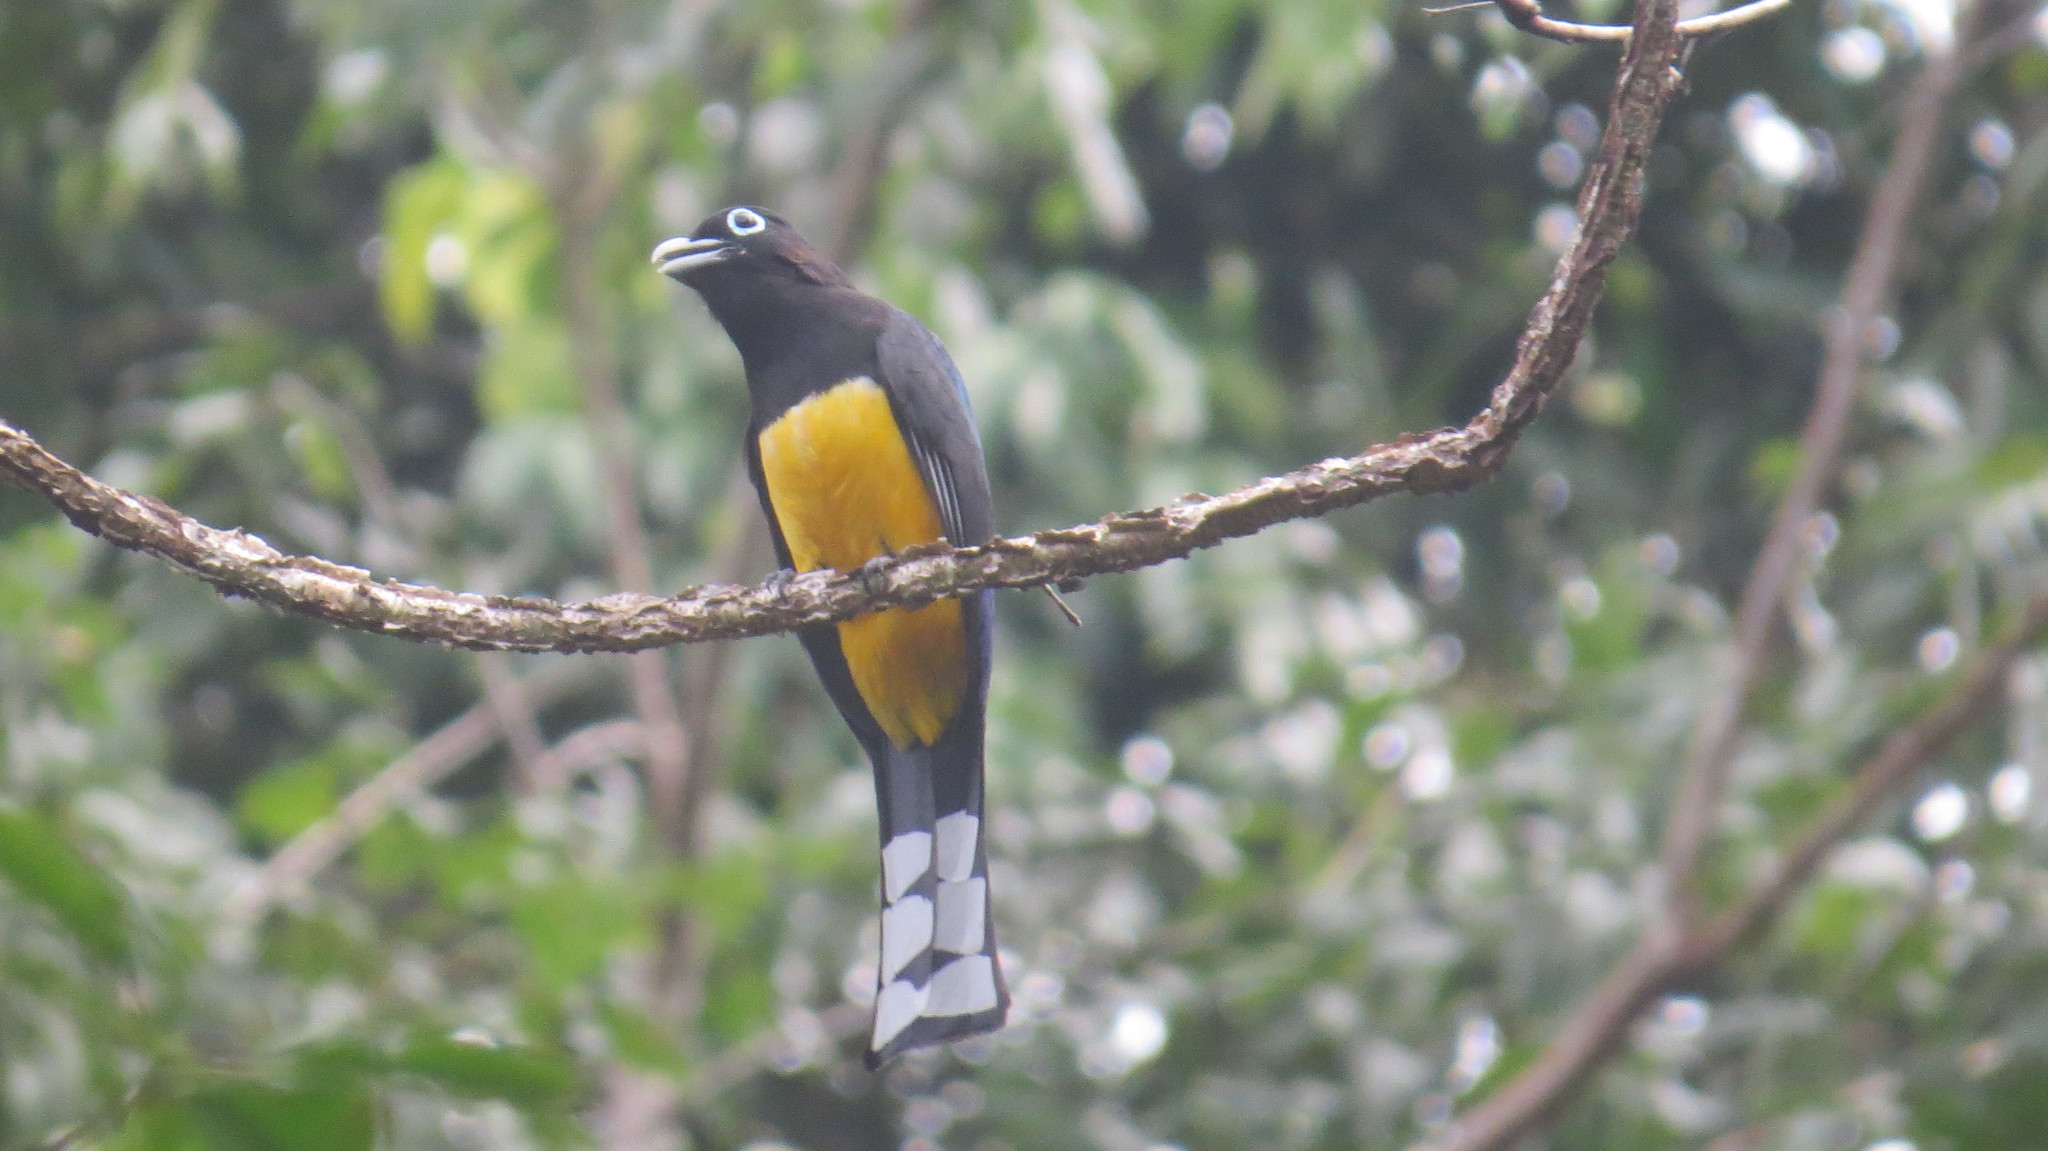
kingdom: Animalia
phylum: Chordata
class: Aves
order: Trogoniformes
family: Trogonidae
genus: Trogon
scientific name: Trogon melanocephalus
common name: Black-headed trogon
